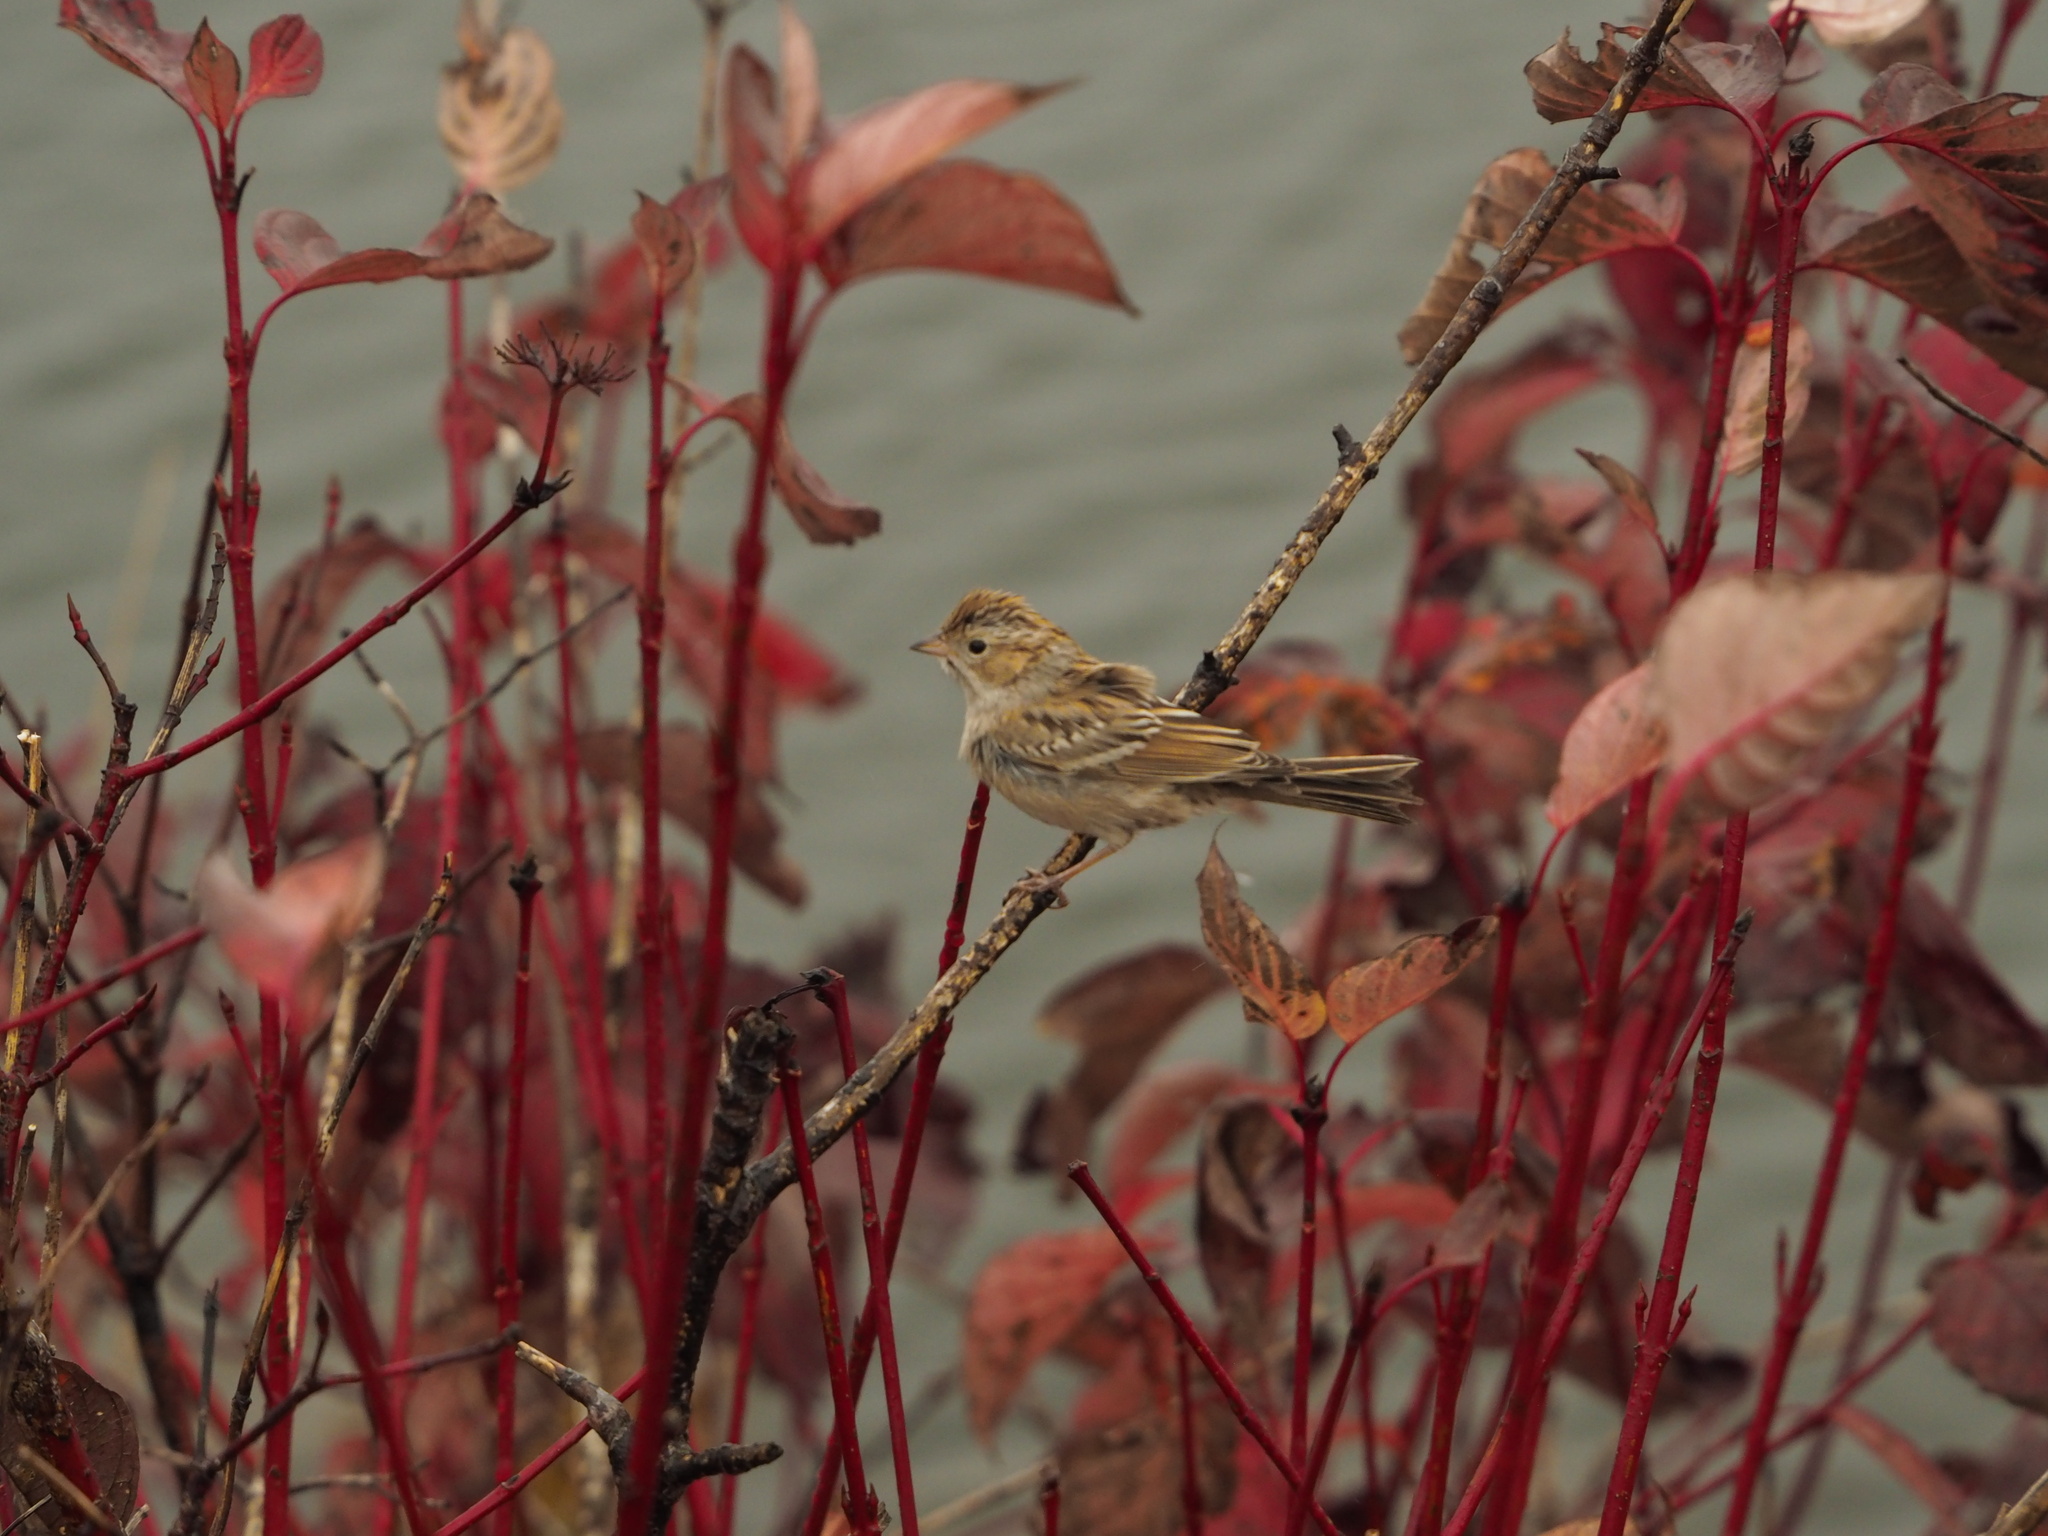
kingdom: Animalia
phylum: Chordata
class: Aves
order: Passeriformes
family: Passerellidae
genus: Spizella
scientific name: Spizella breweri
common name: Brewer's sparrow
